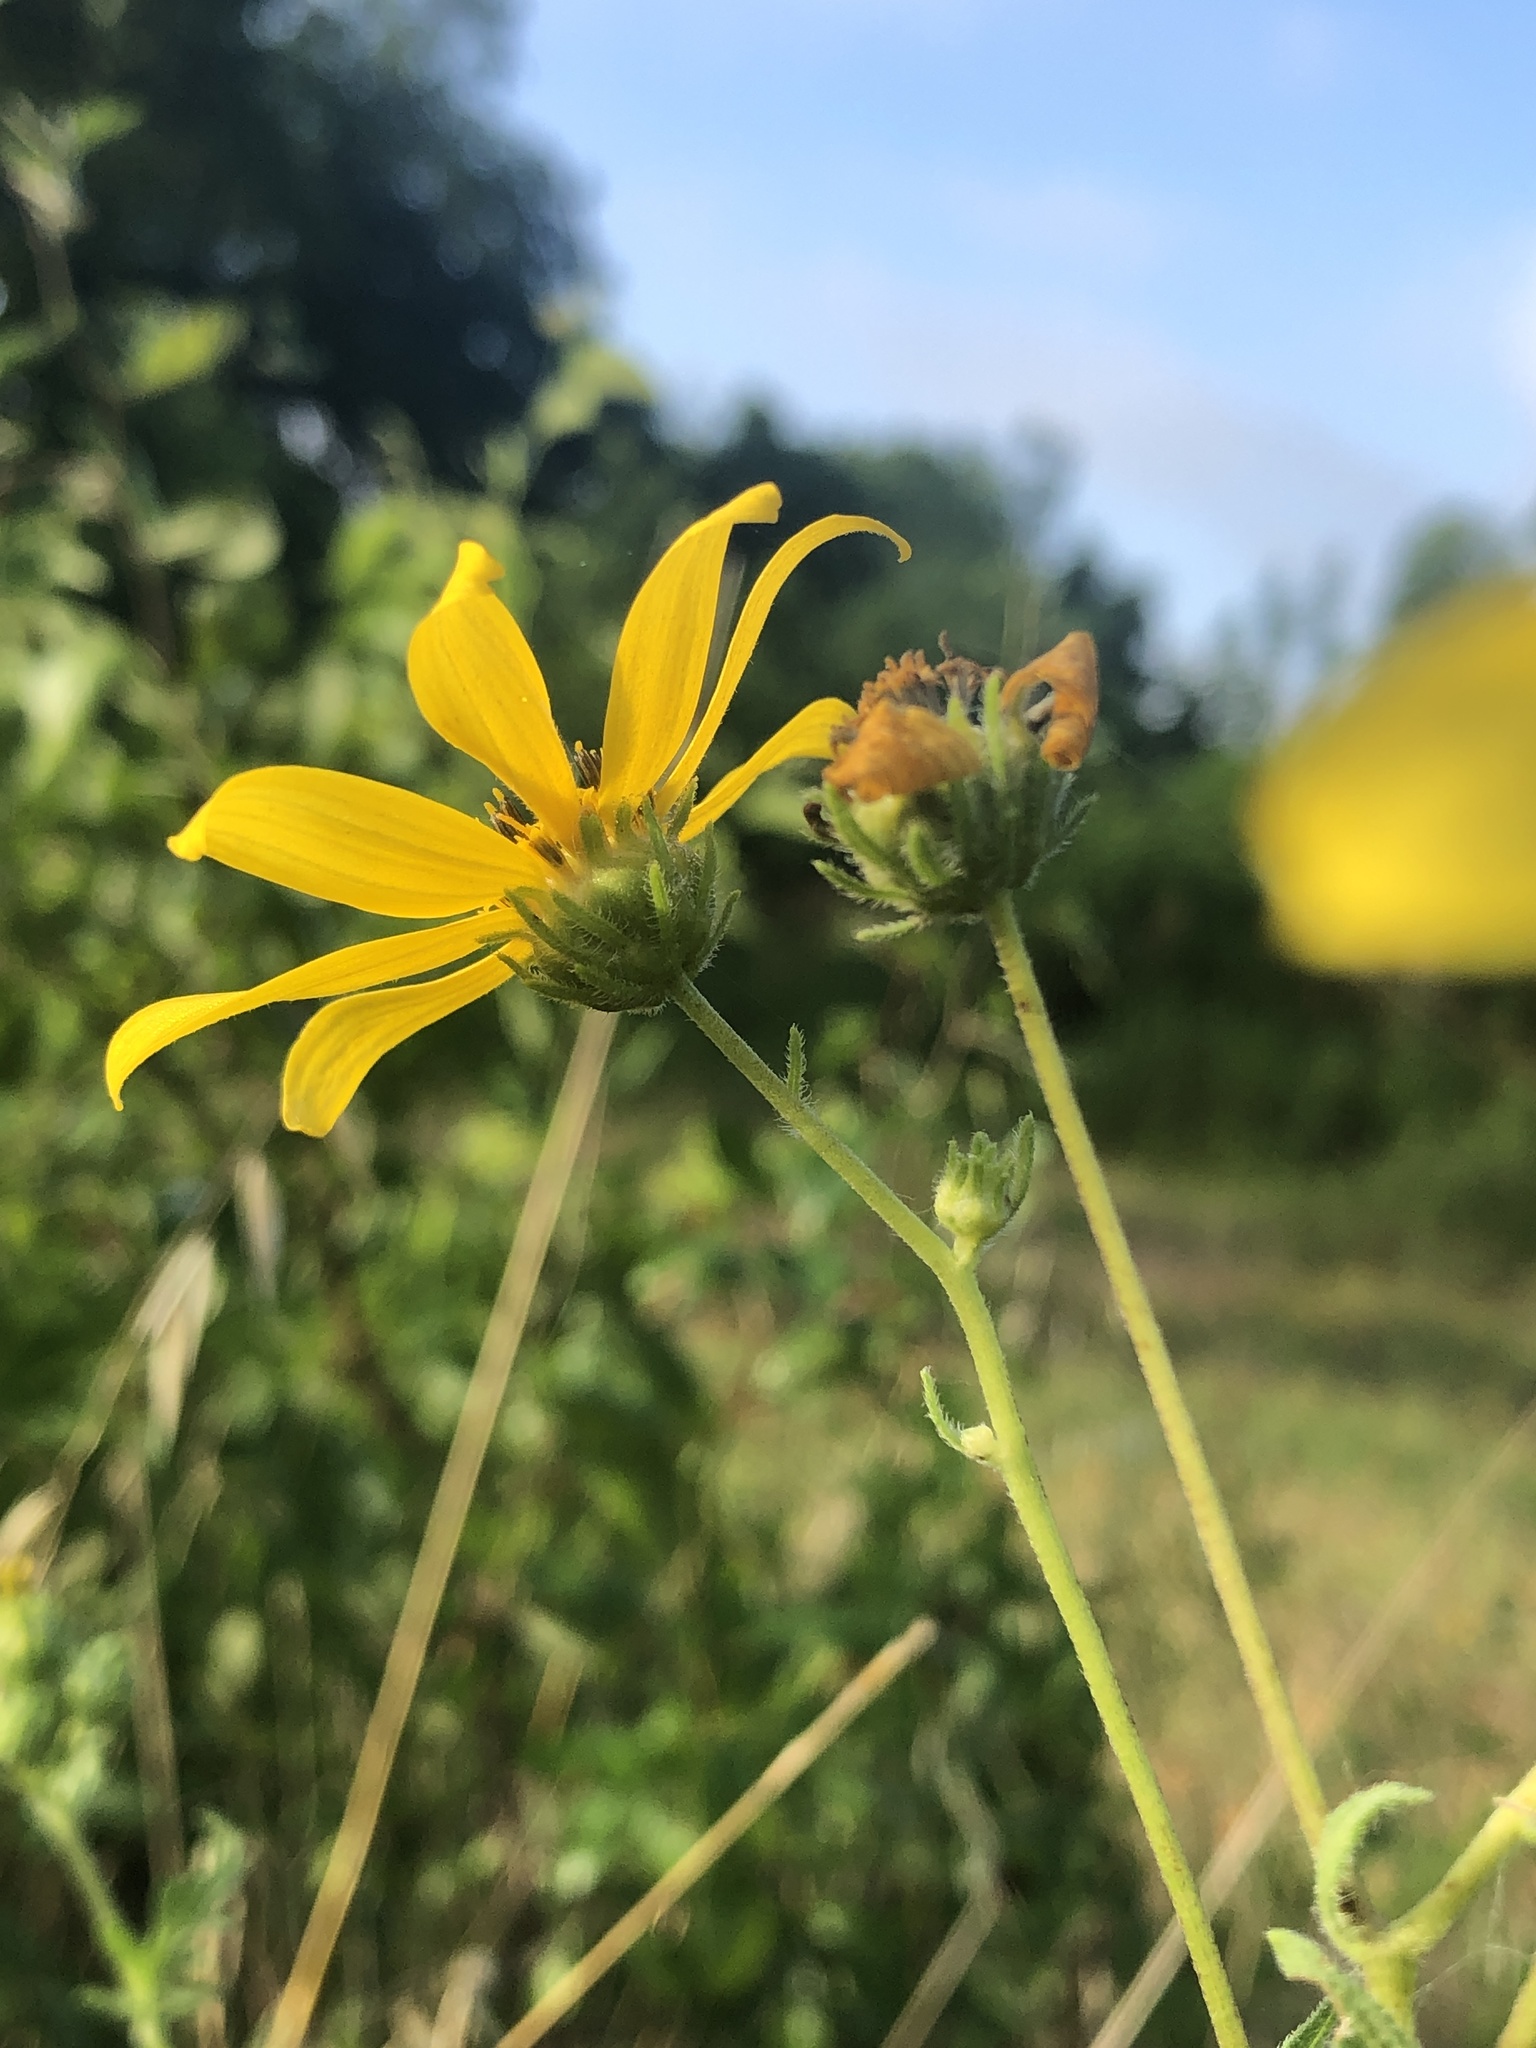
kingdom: Plantae
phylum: Tracheophyta
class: Magnoliopsida
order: Asterales
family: Asteraceae
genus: Engelmannia
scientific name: Engelmannia peristenia
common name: Engelmann's daisy
